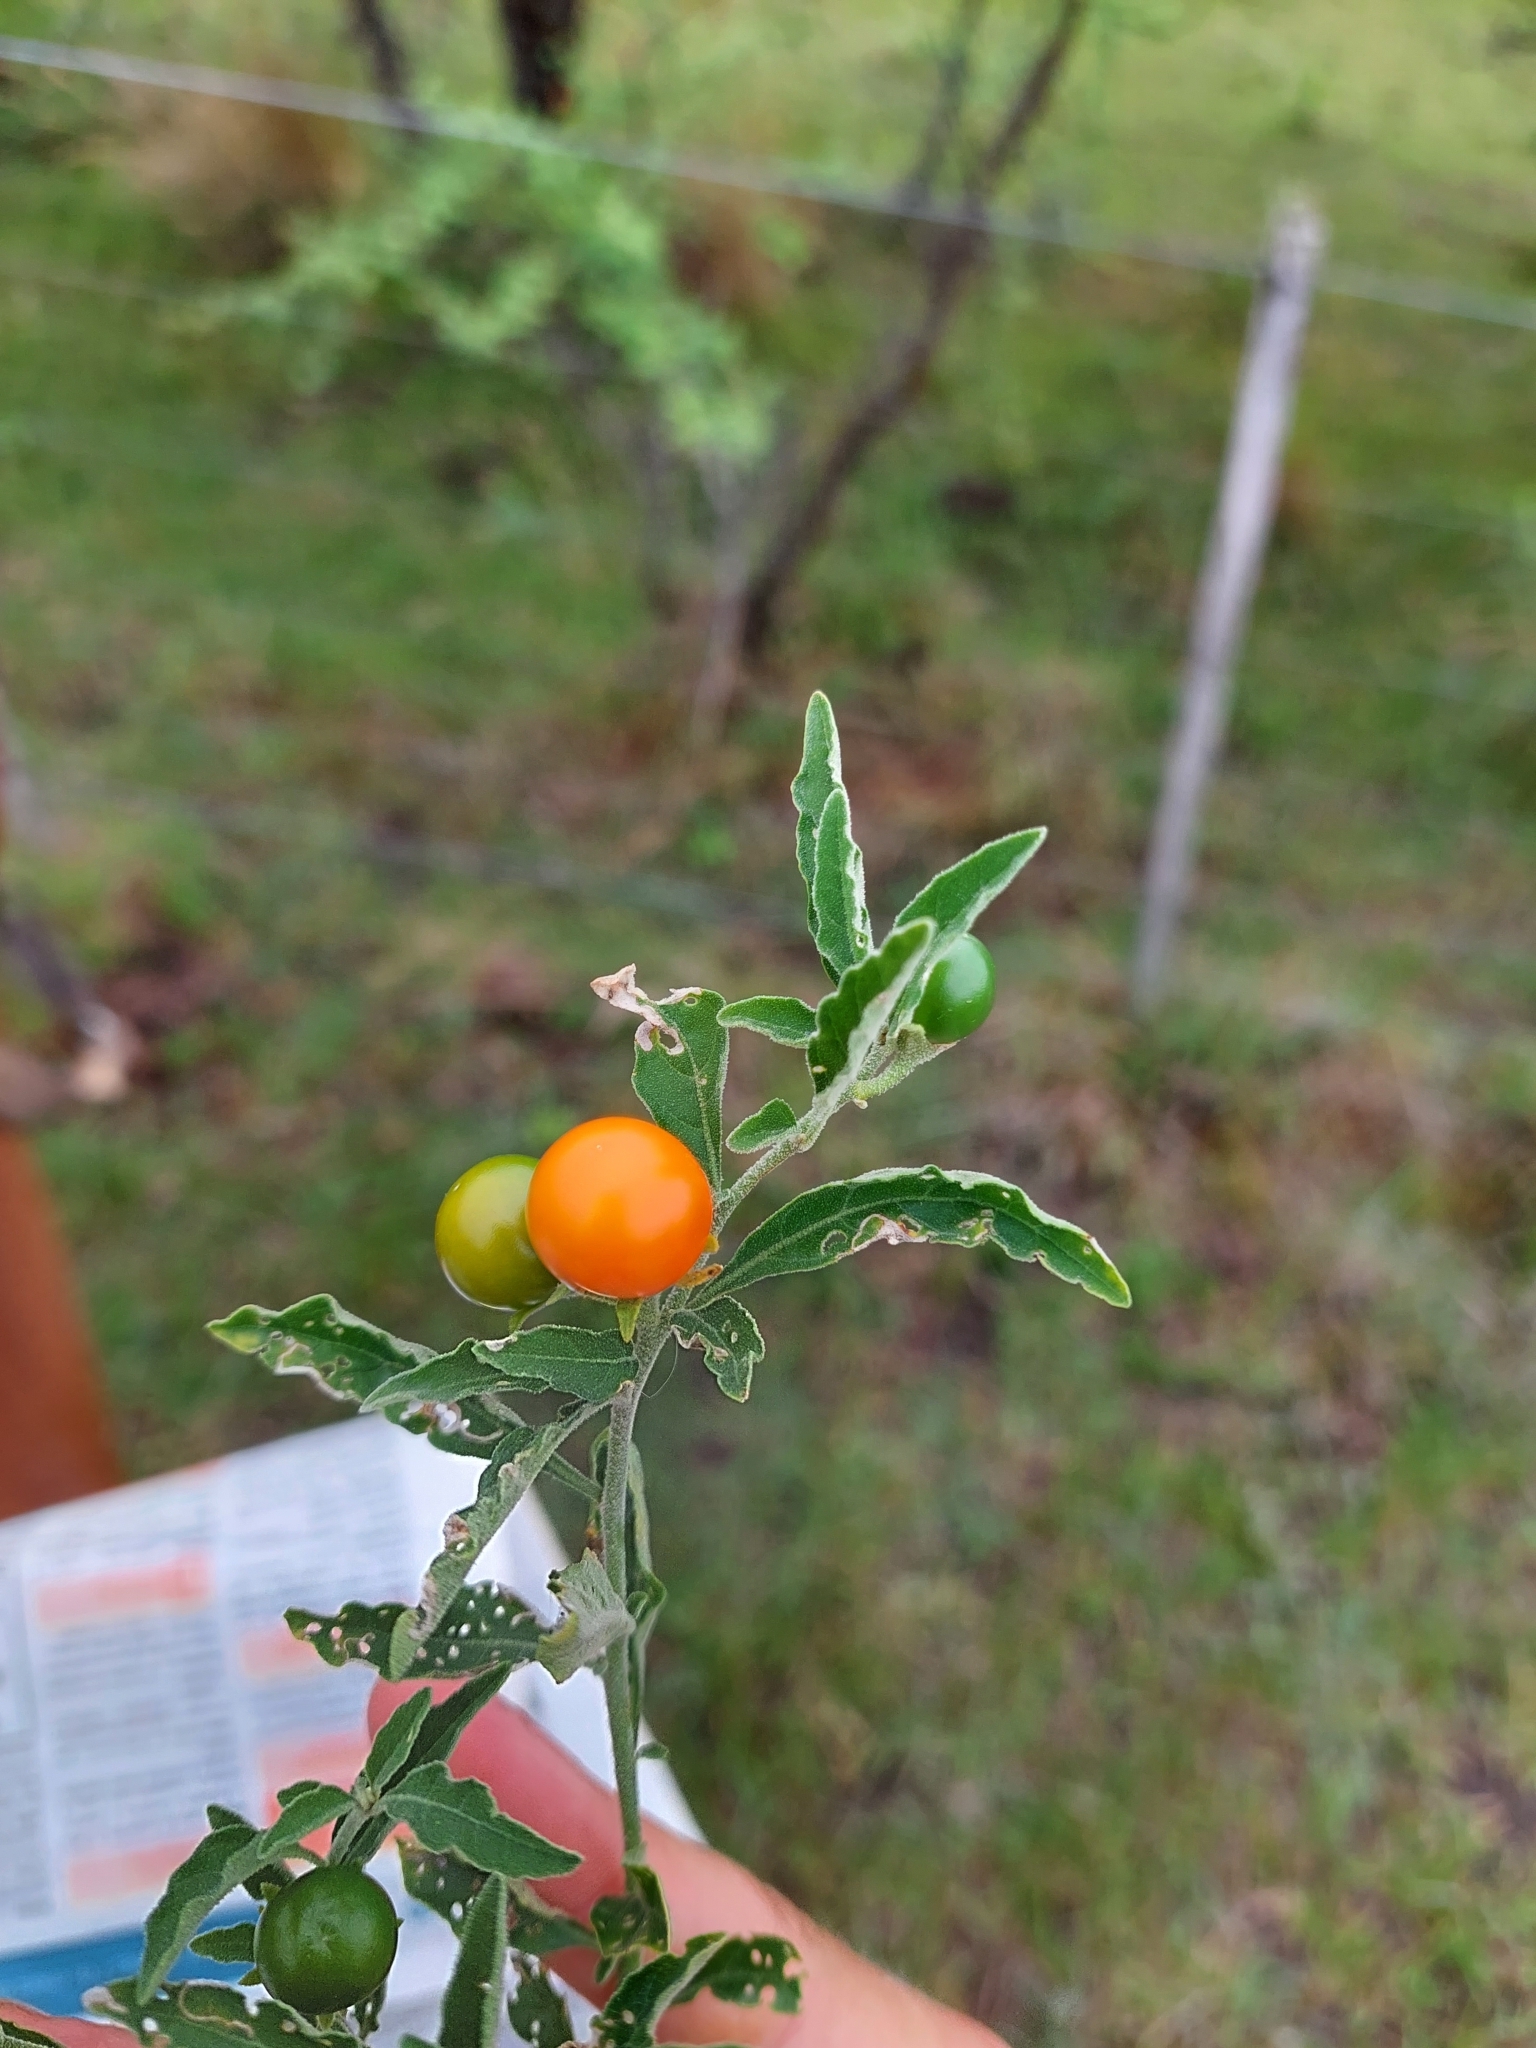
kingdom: Plantae
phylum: Tracheophyta
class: Magnoliopsida
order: Solanales
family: Solanaceae
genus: Solanum
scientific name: Solanum pseudocapsicum
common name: Jerusalem cherry
